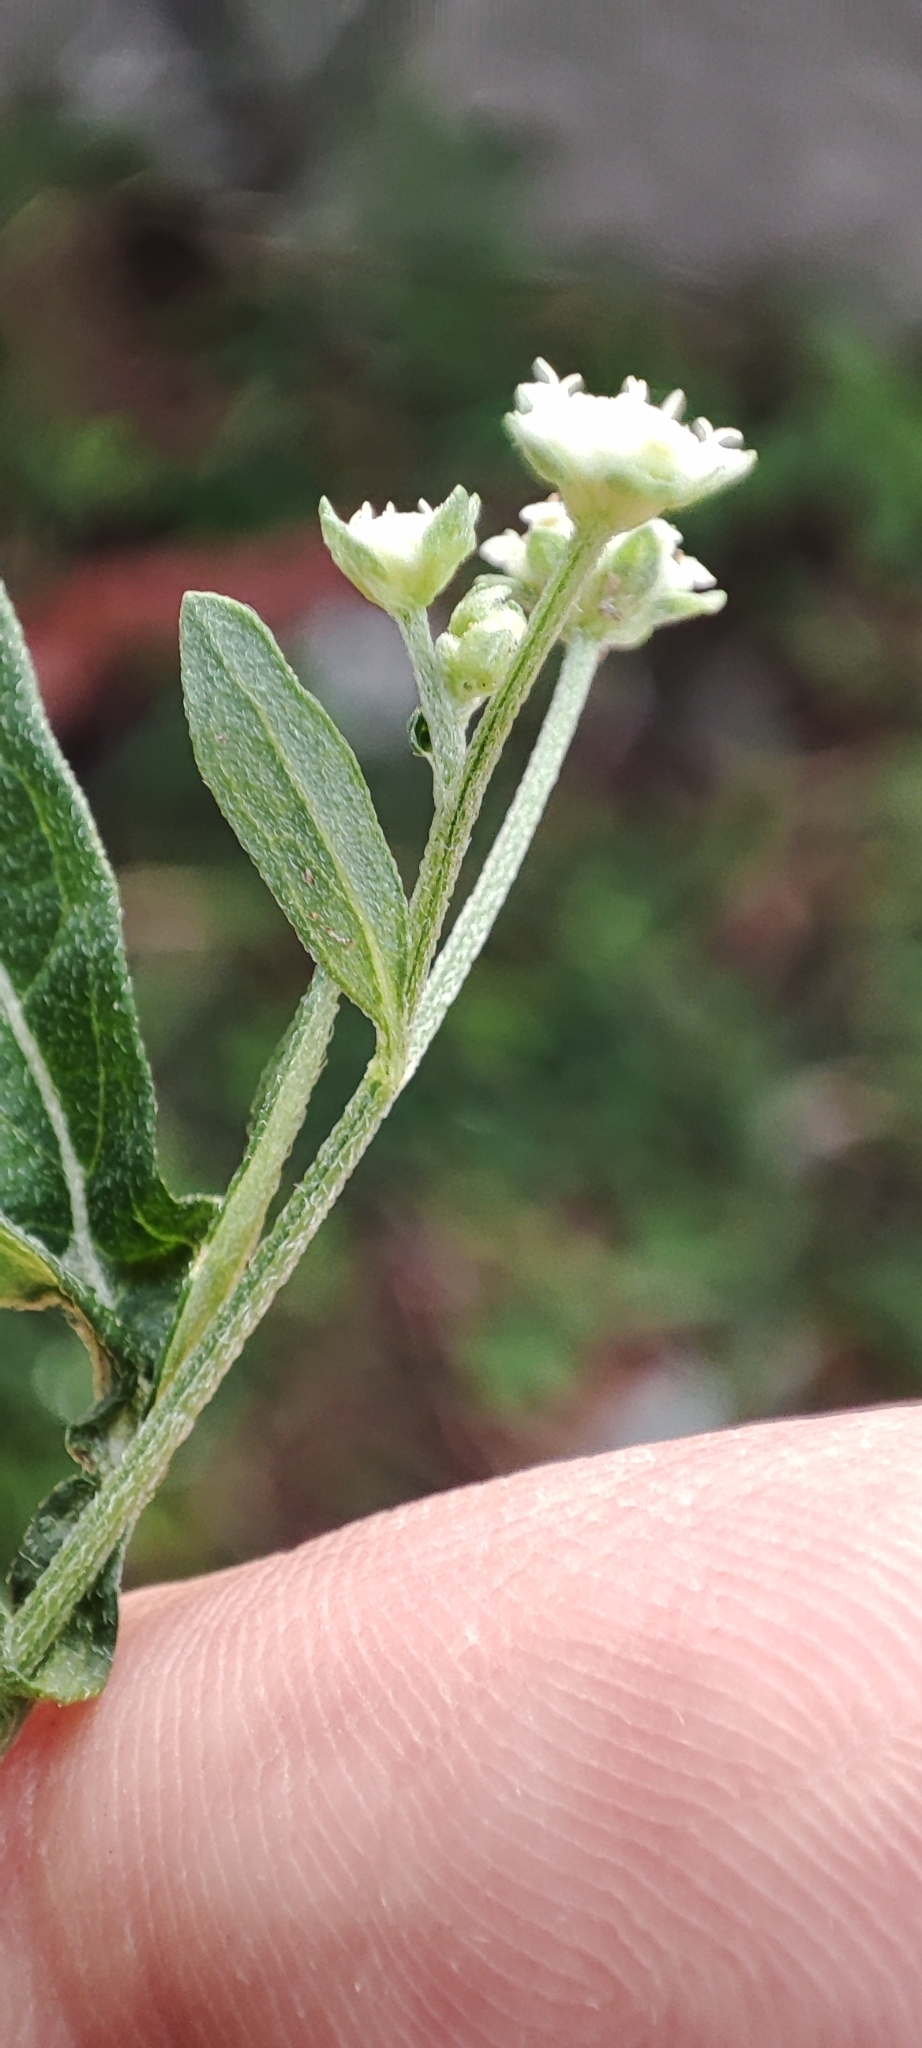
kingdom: Plantae
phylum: Tracheophyta
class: Magnoliopsida
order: Asterales
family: Asteraceae
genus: Parthenium
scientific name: Parthenium hysterophorus
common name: Santa maria feverfew
